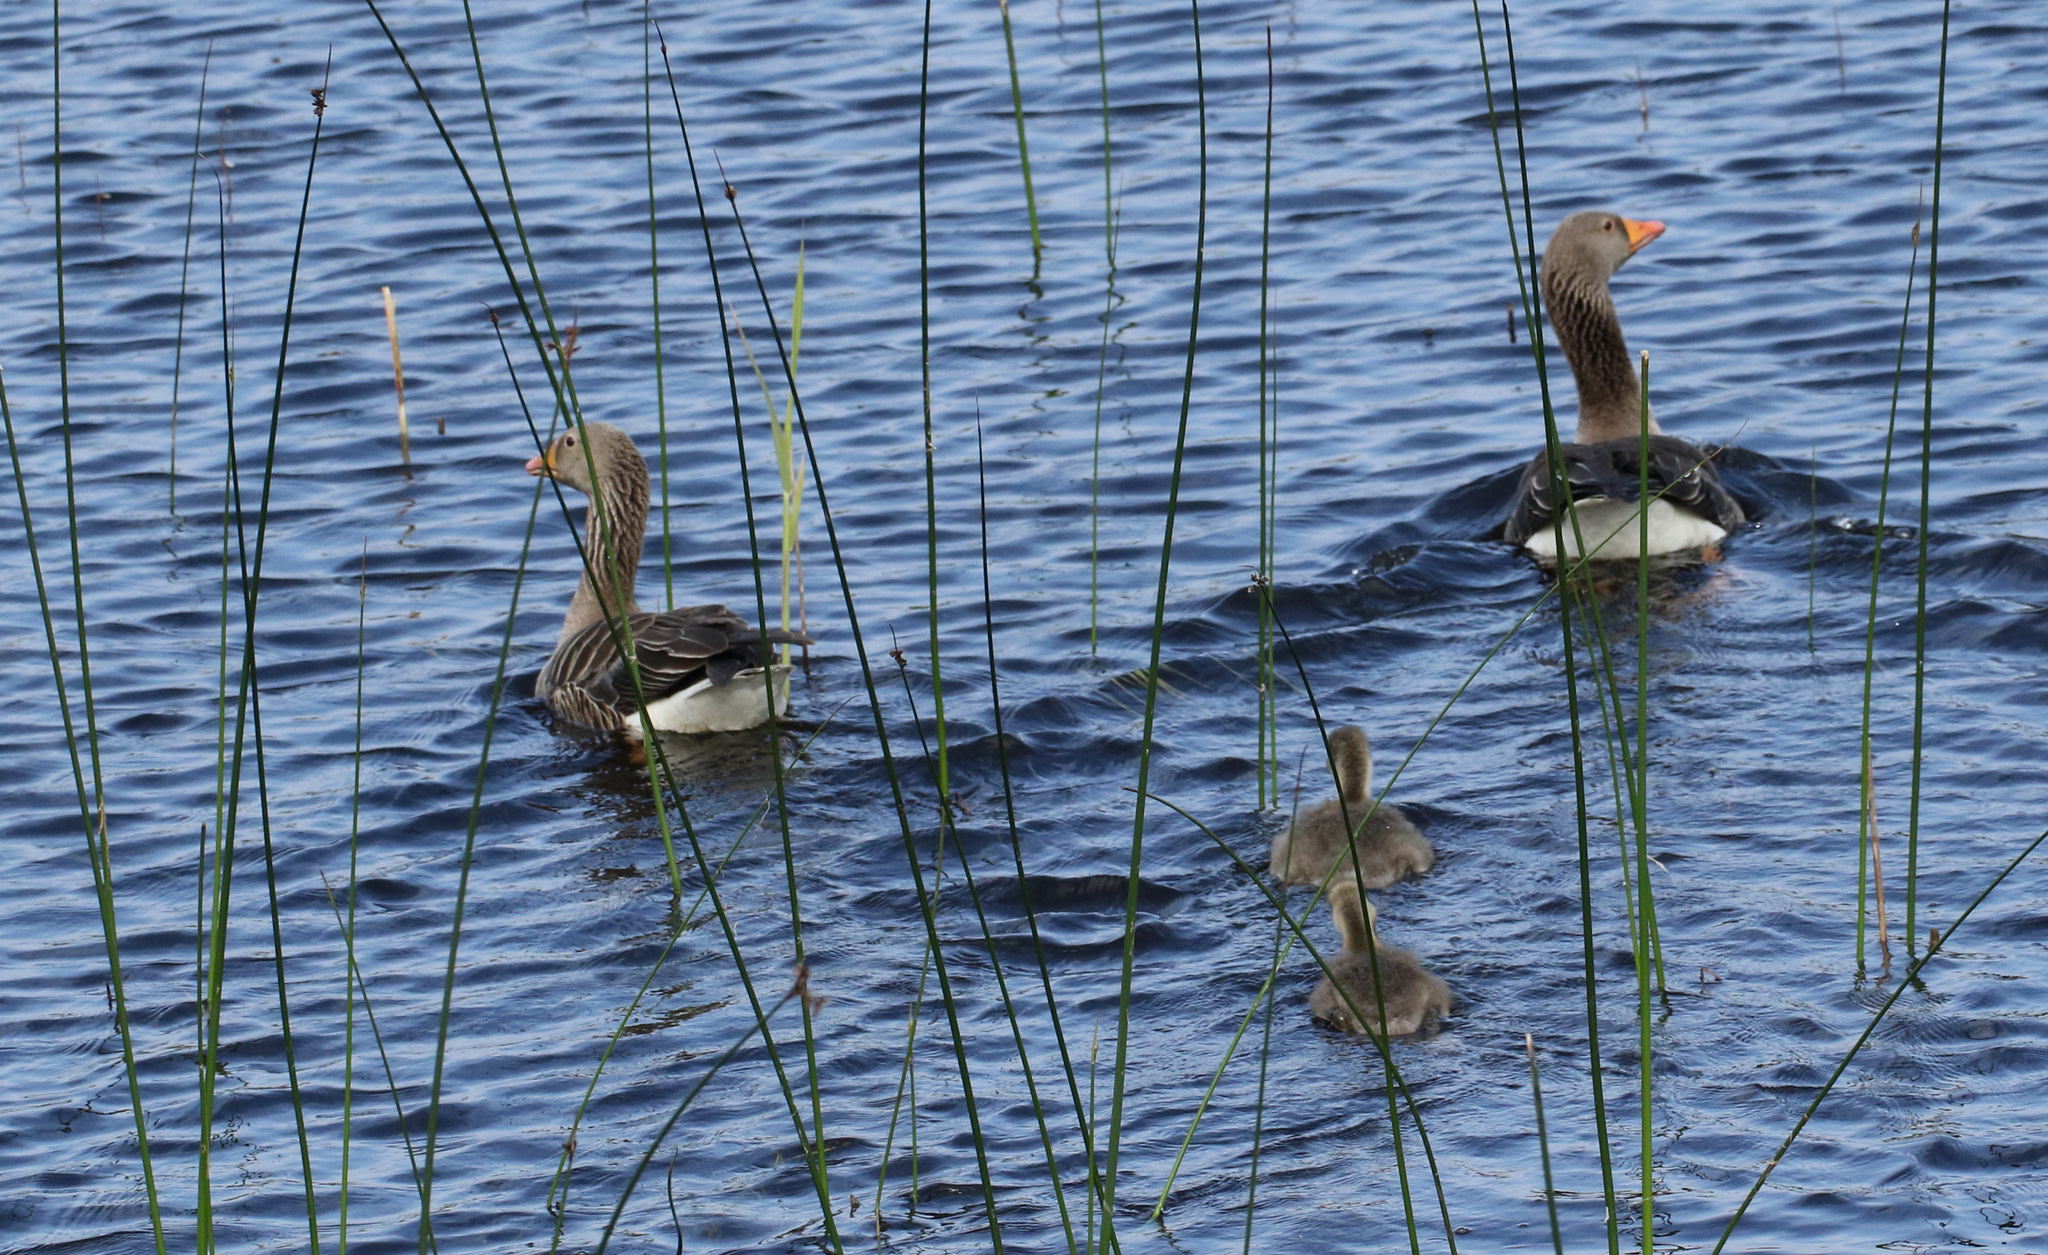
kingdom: Animalia
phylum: Chordata
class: Aves
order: Anseriformes
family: Anatidae
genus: Anser
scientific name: Anser anser
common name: Greylag goose
